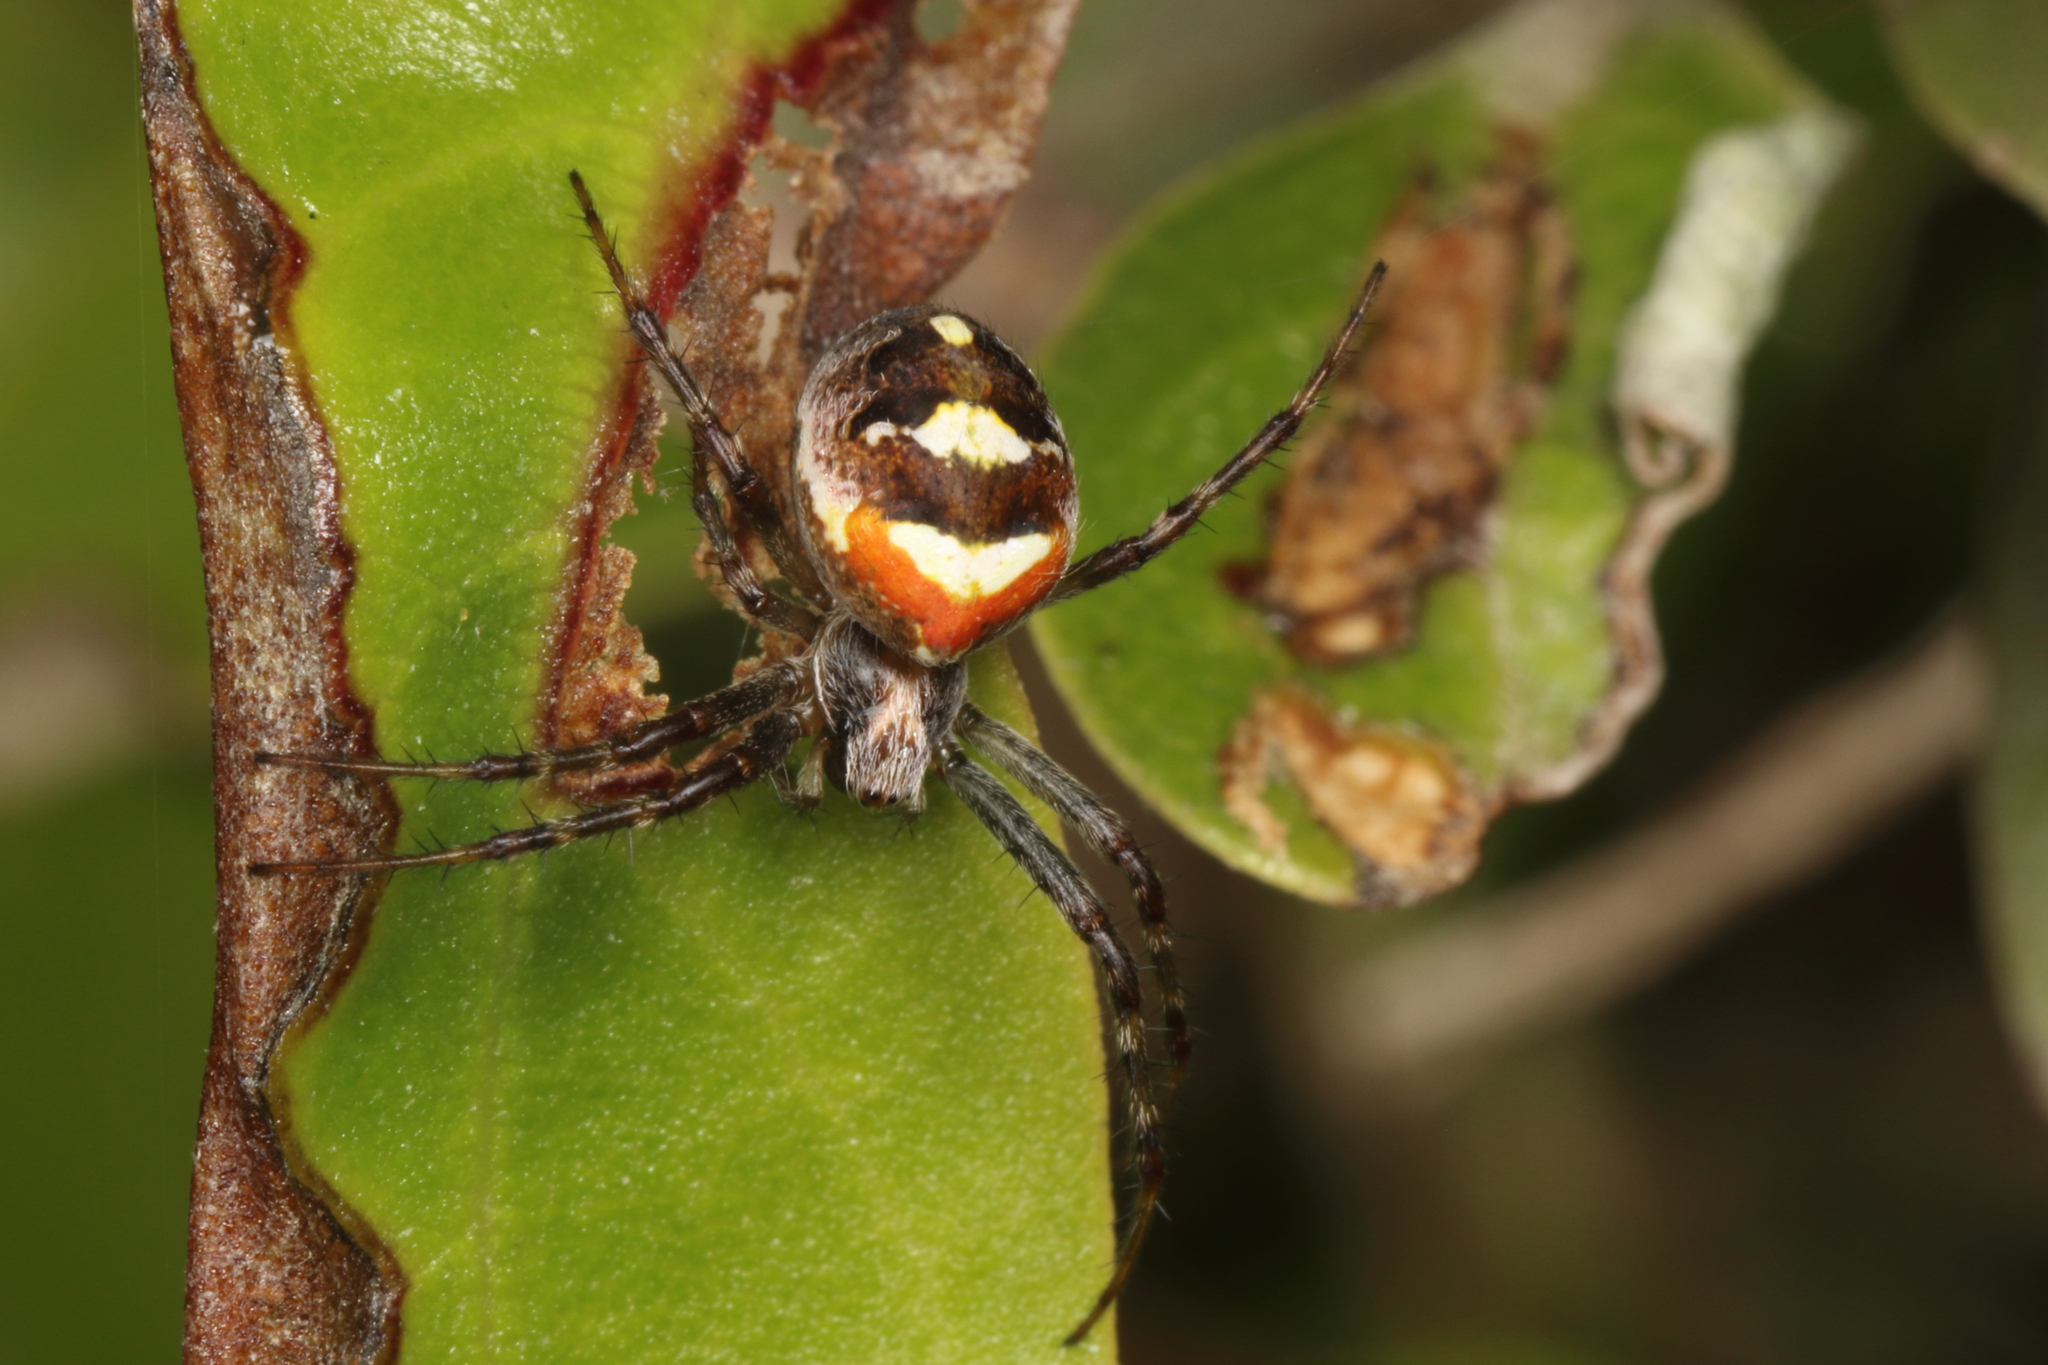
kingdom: Animalia
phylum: Arthropoda
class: Arachnida
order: Araneae
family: Araneidae
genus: Novaranea
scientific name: Novaranea queribunda
